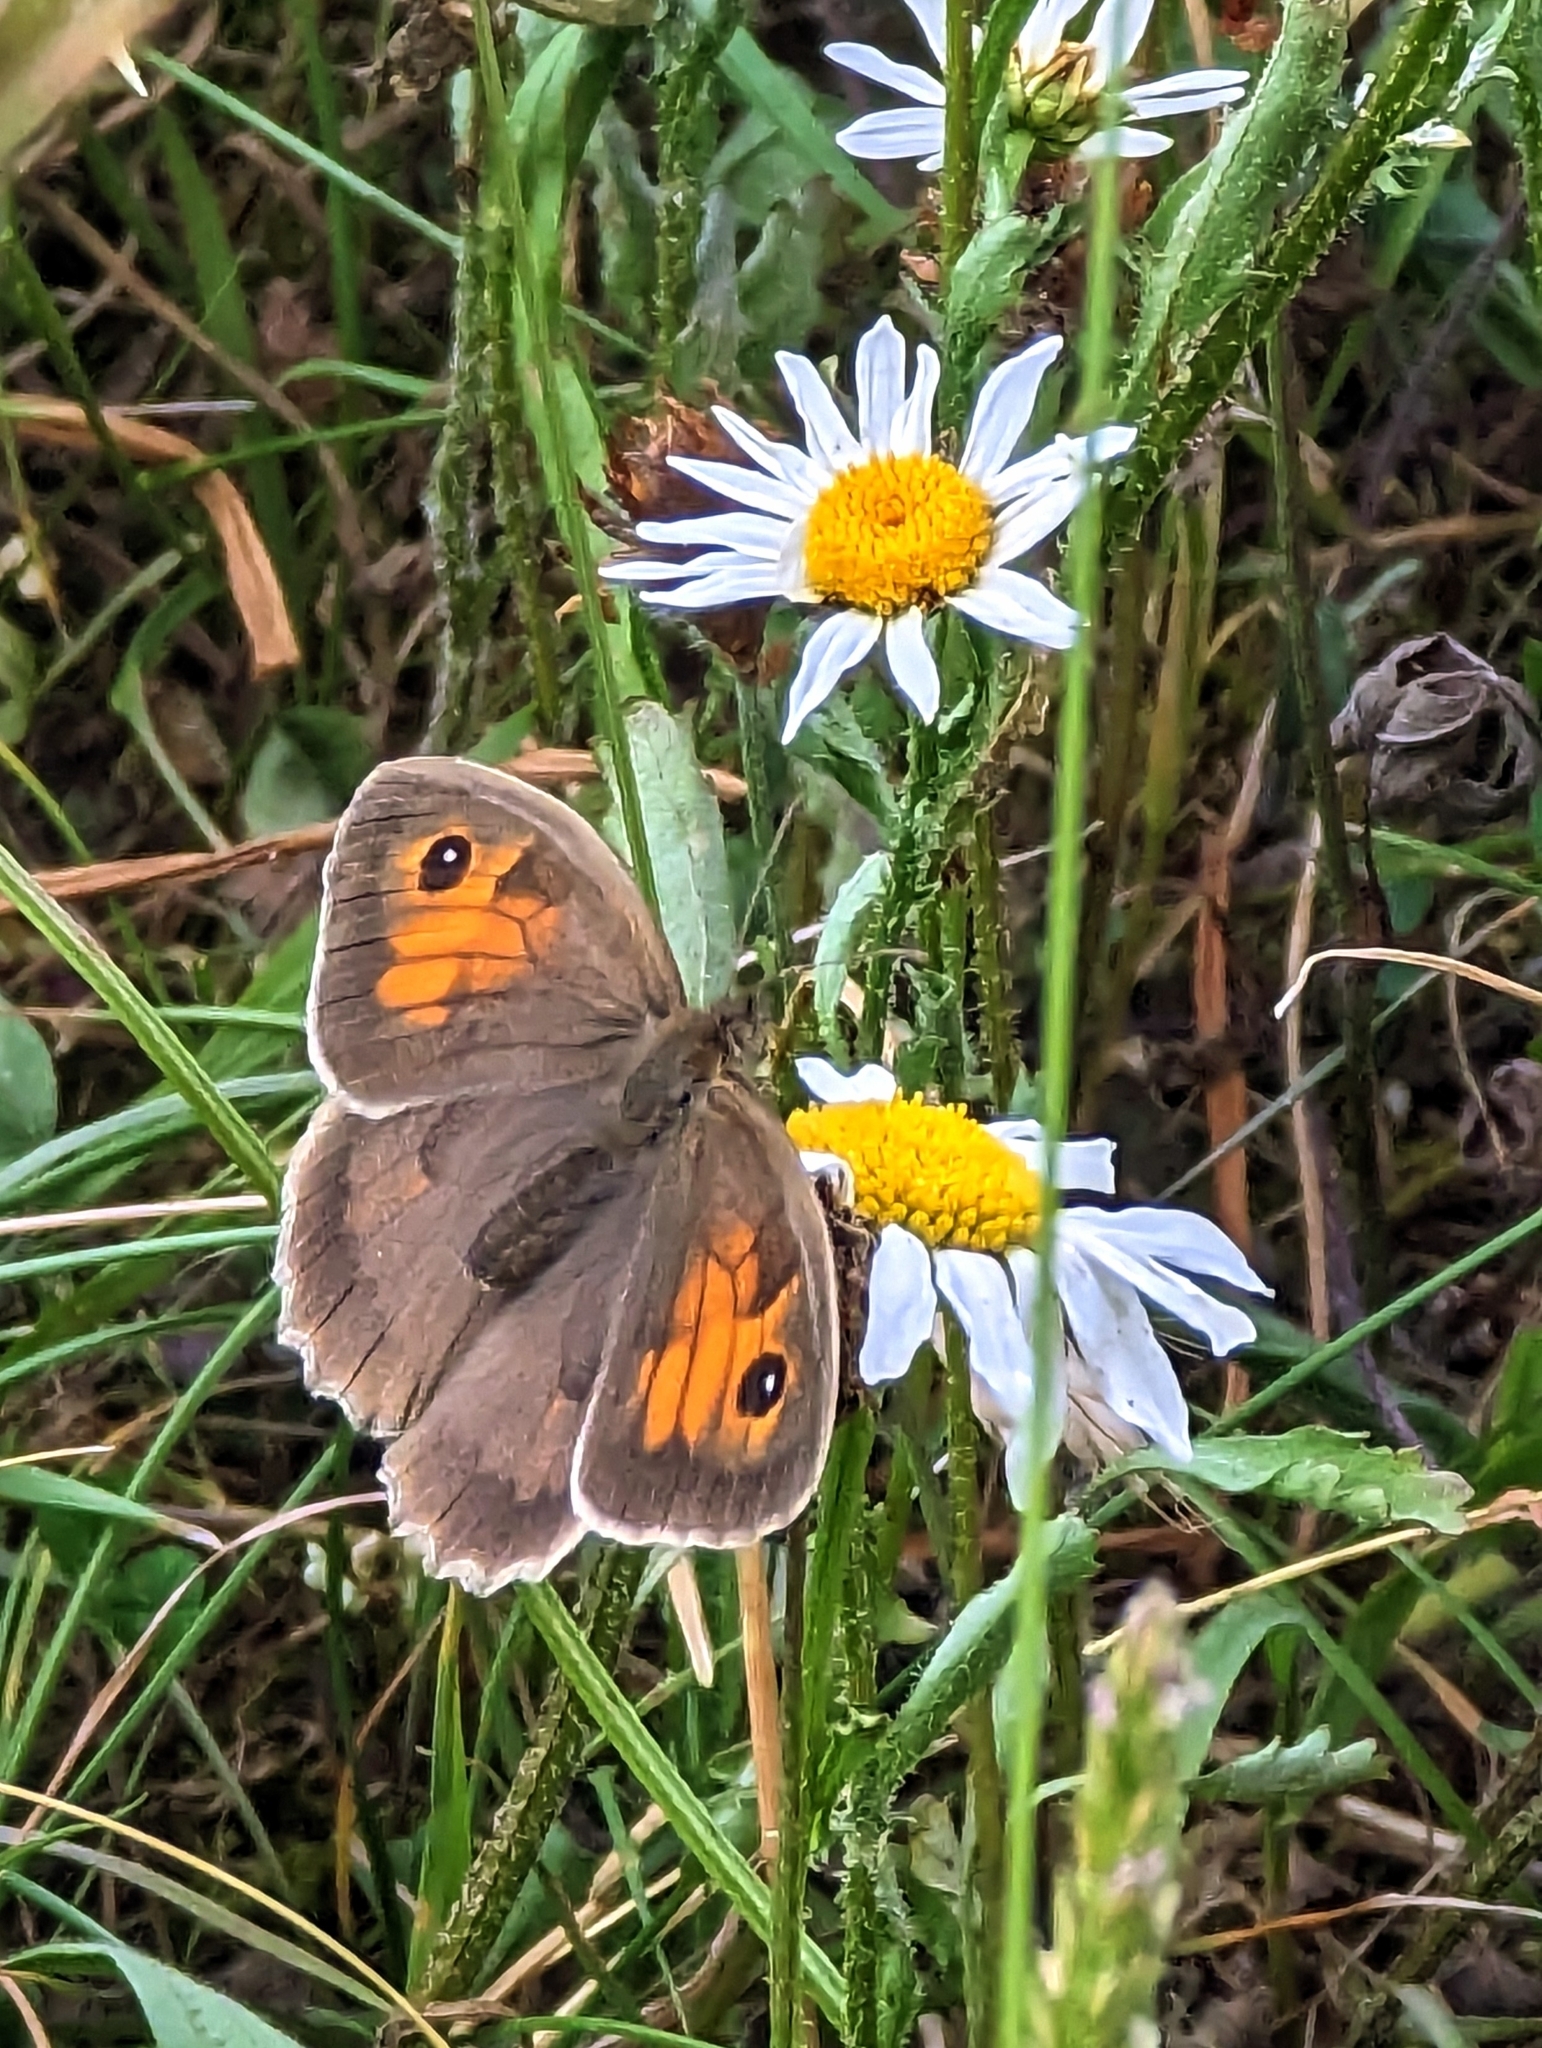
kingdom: Animalia
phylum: Arthropoda
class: Insecta
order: Lepidoptera
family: Nymphalidae
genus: Maniola
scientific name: Maniola jurtina
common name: Meadow brown
